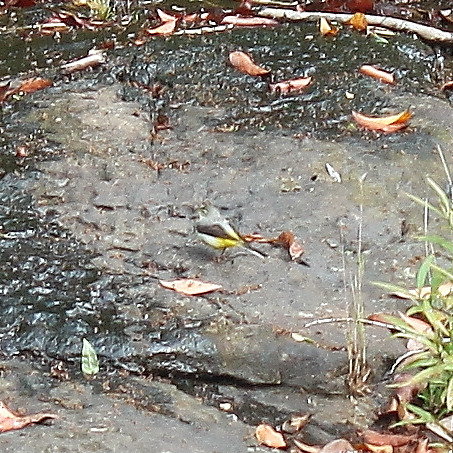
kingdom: Animalia
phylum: Chordata
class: Aves
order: Passeriformes
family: Motacillidae
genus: Motacilla
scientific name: Motacilla cinerea
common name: Grey wagtail
